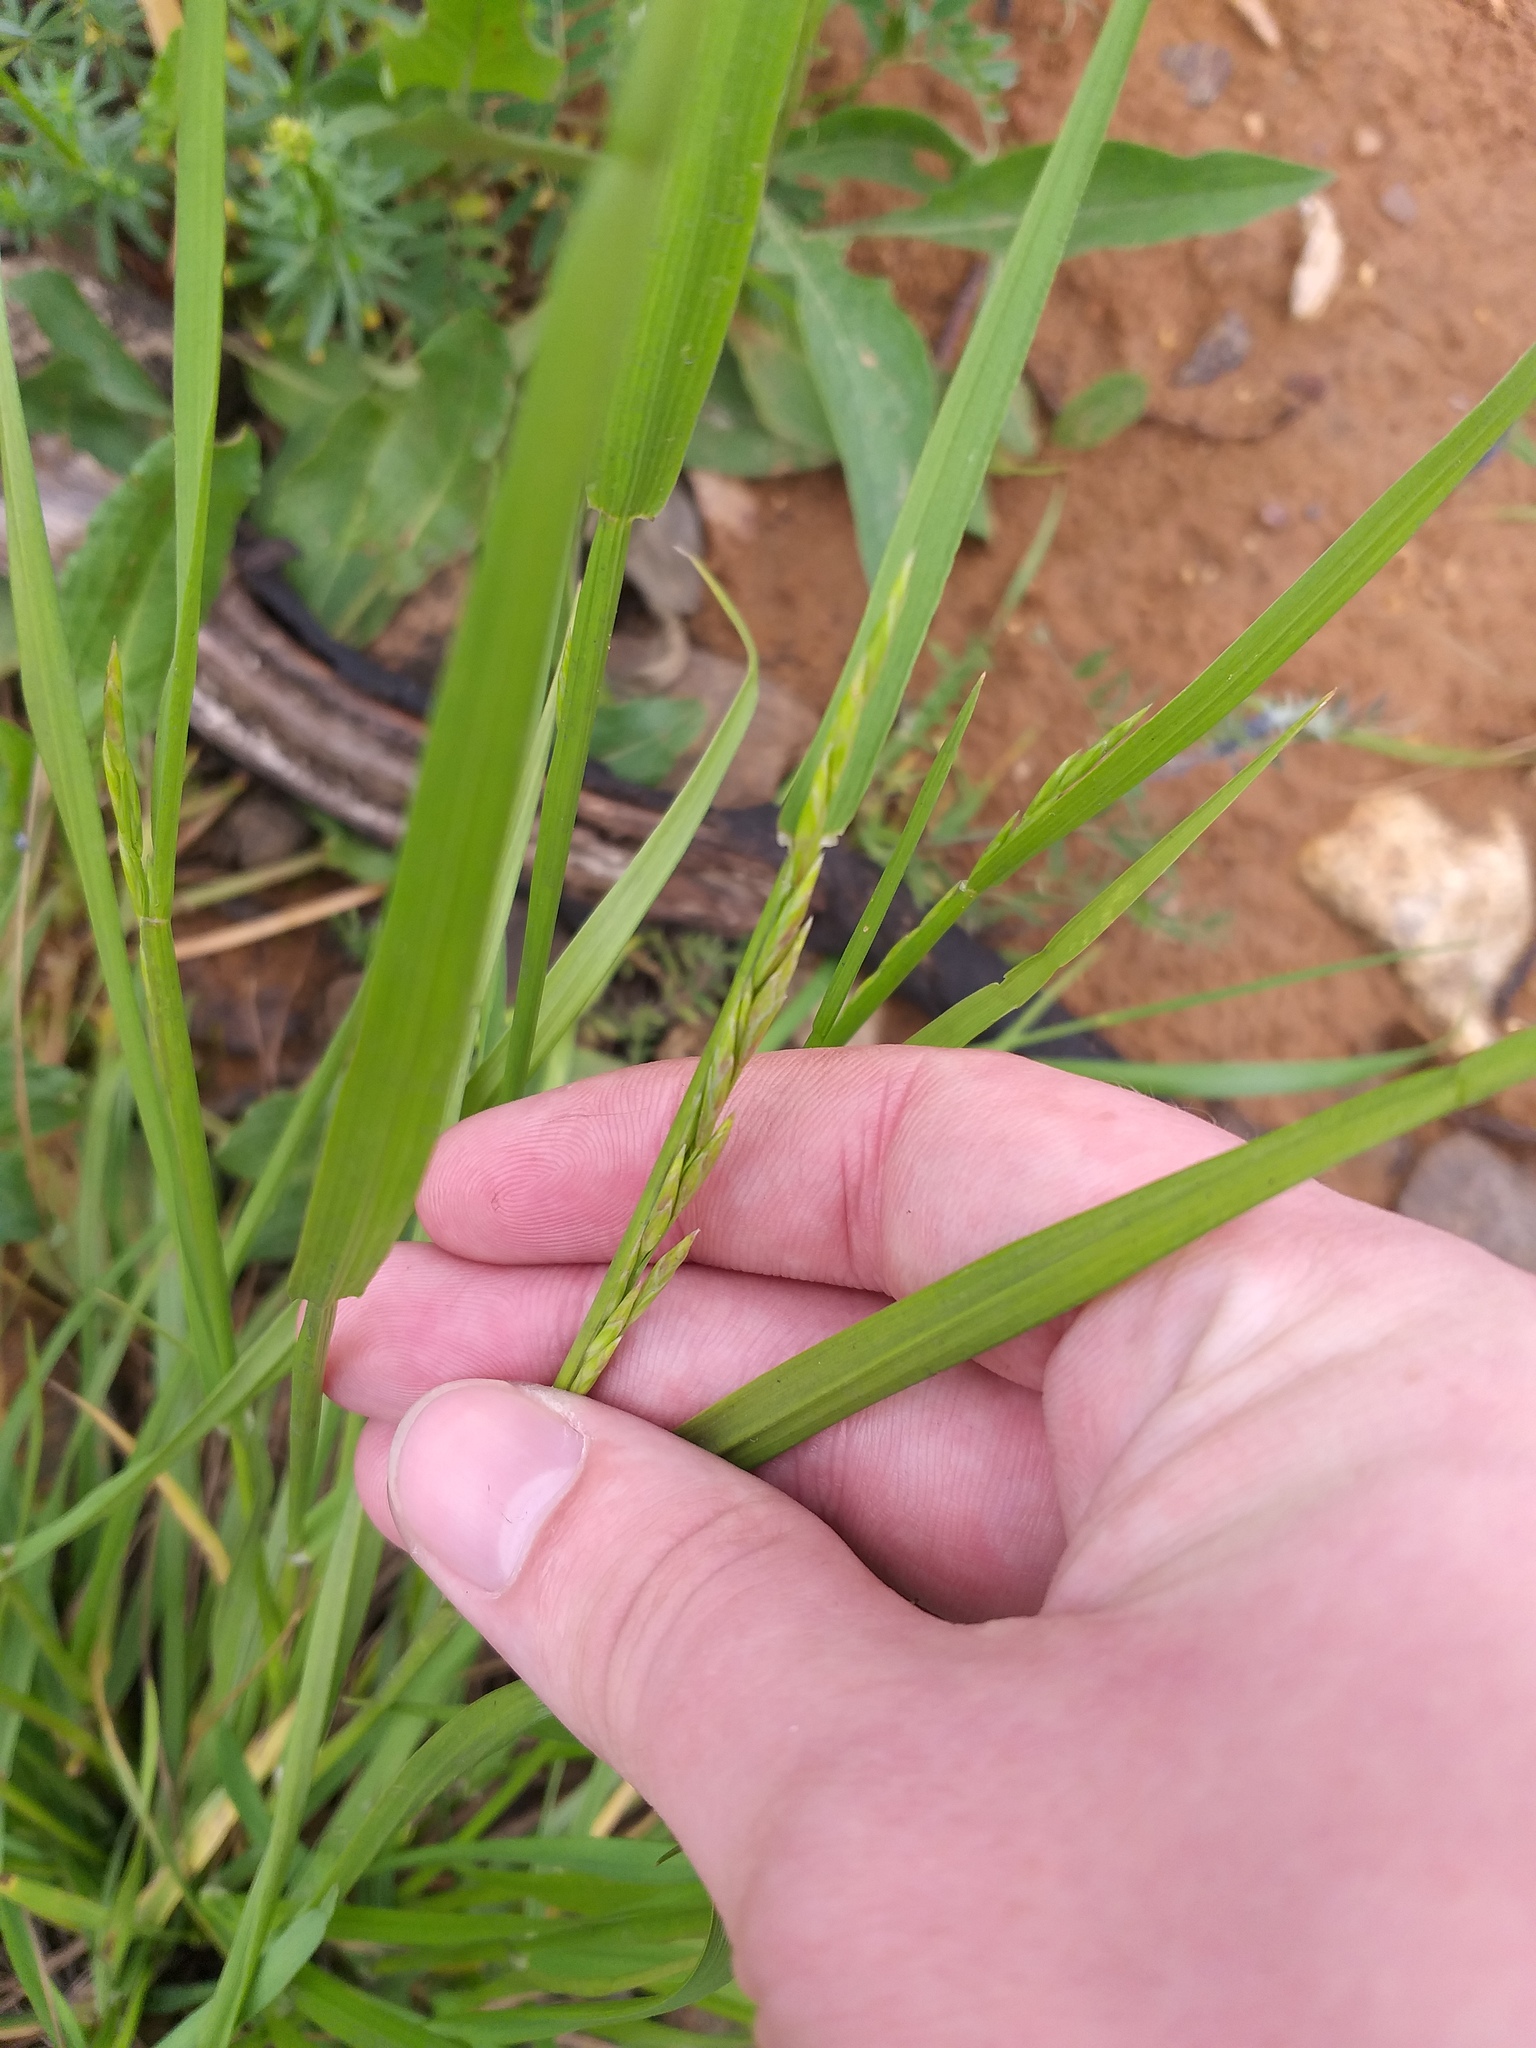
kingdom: Plantae
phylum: Tracheophyta
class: Liliopsida
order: Poales
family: Poaceae
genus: Lolium
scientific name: Lolium pratense
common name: Dover grass
